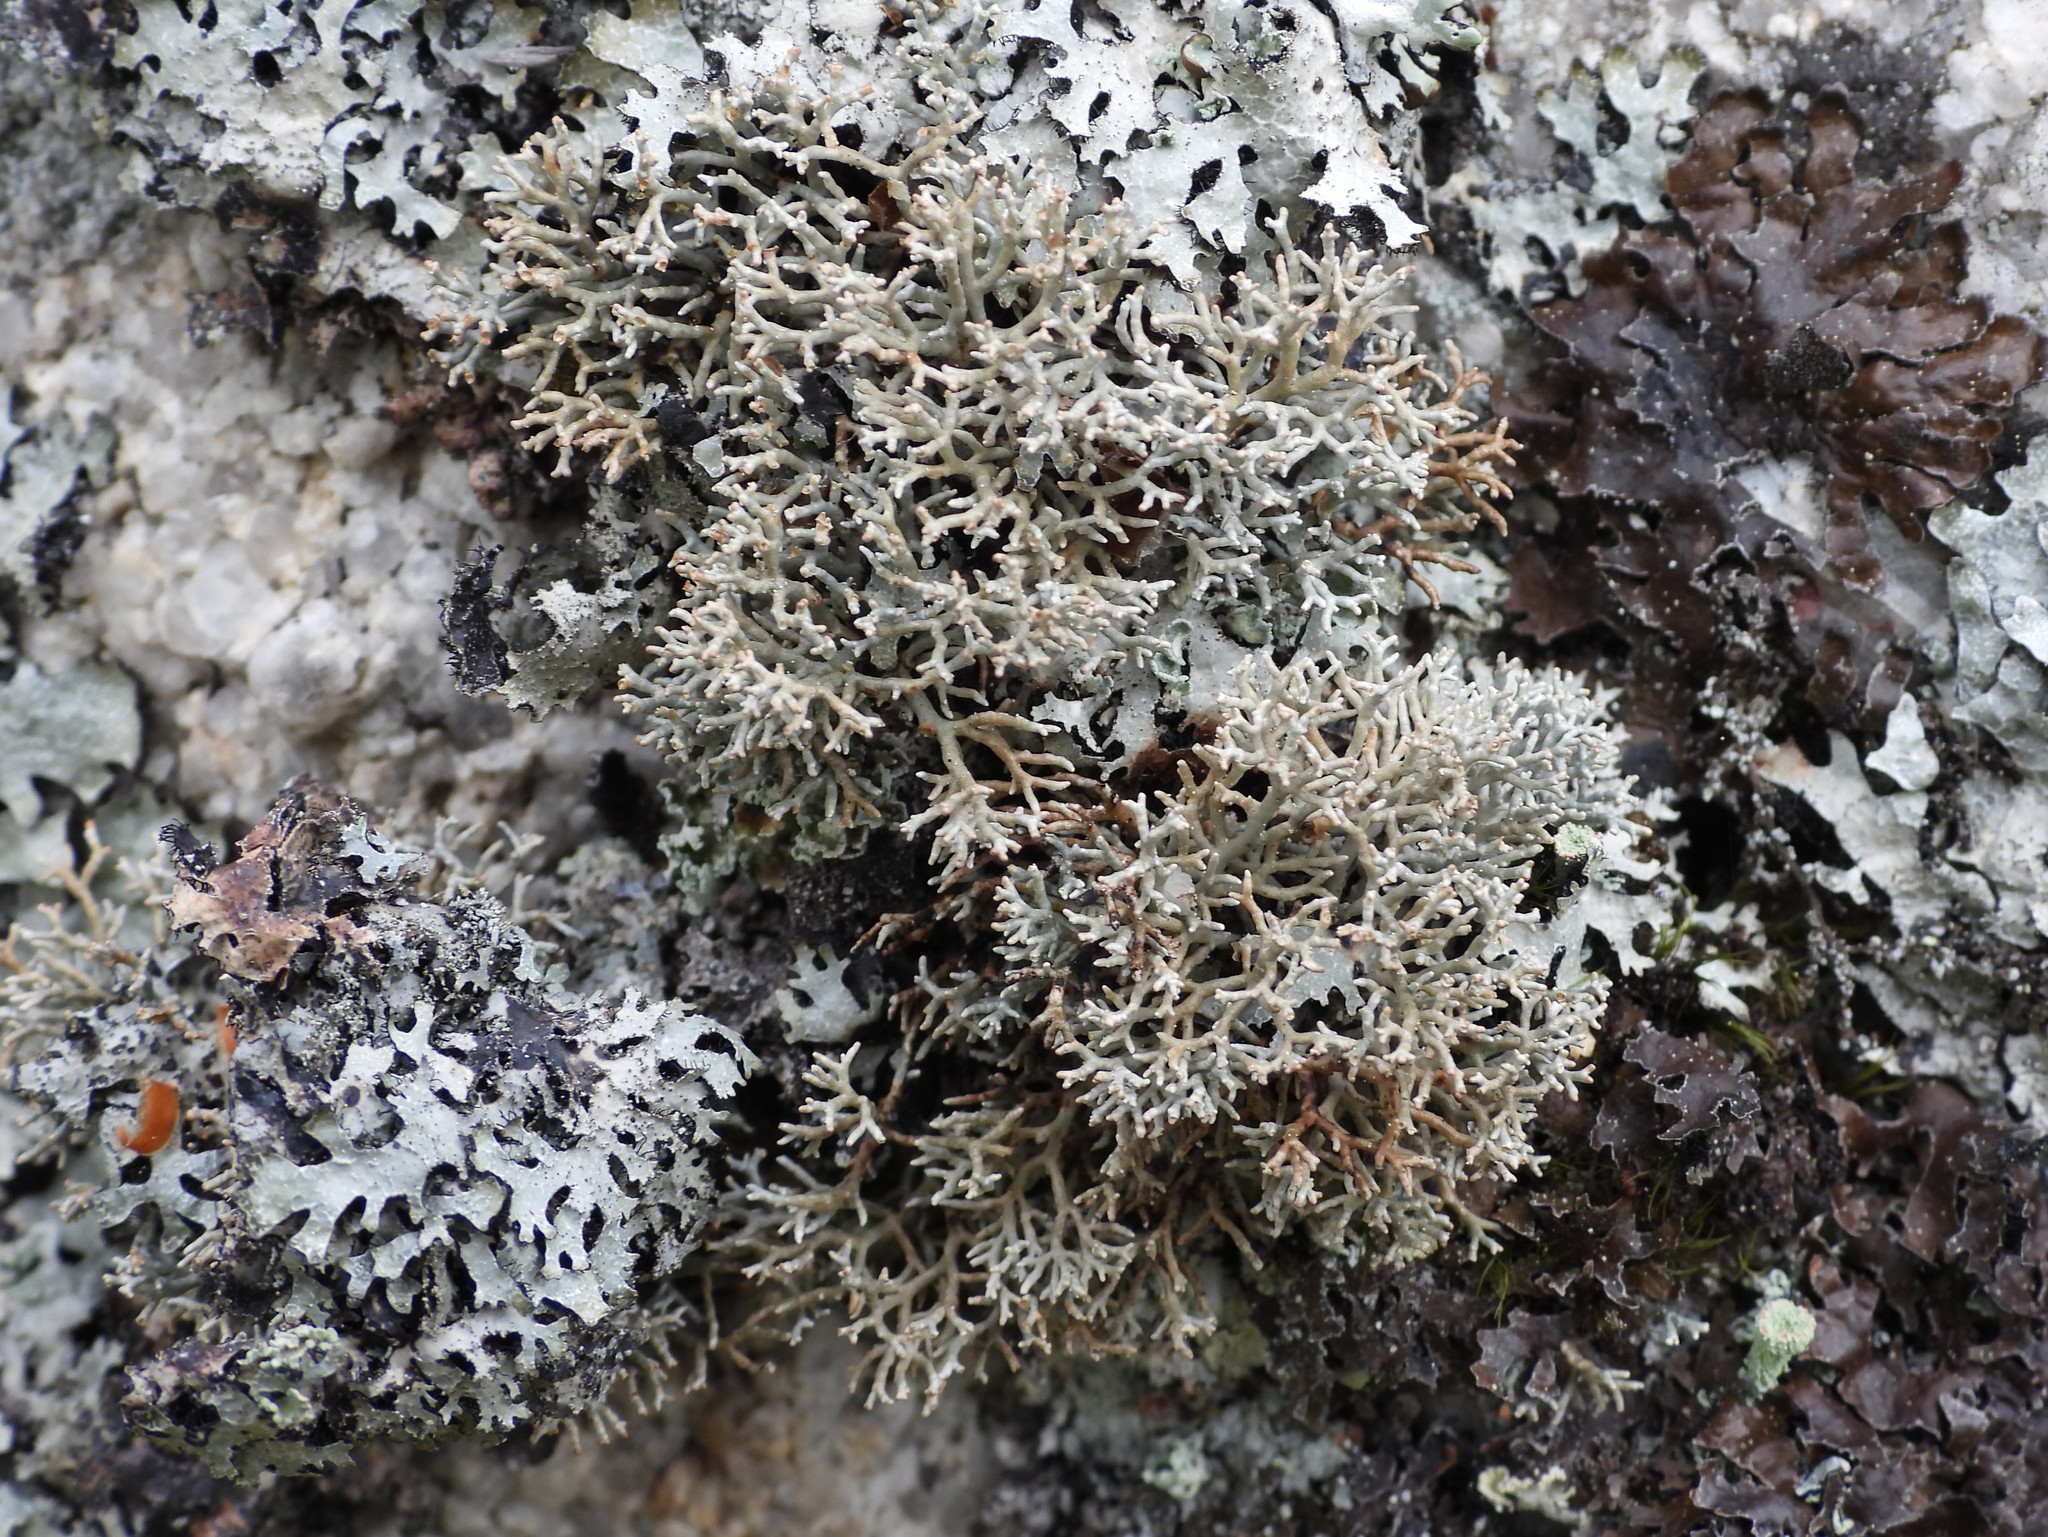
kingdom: Fungi
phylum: Ascomycota
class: Lecanoromycetes
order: Lecanorales
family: Sphaerophoraceae
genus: Sphaerophorus
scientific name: Sphaerophorus fragilis
